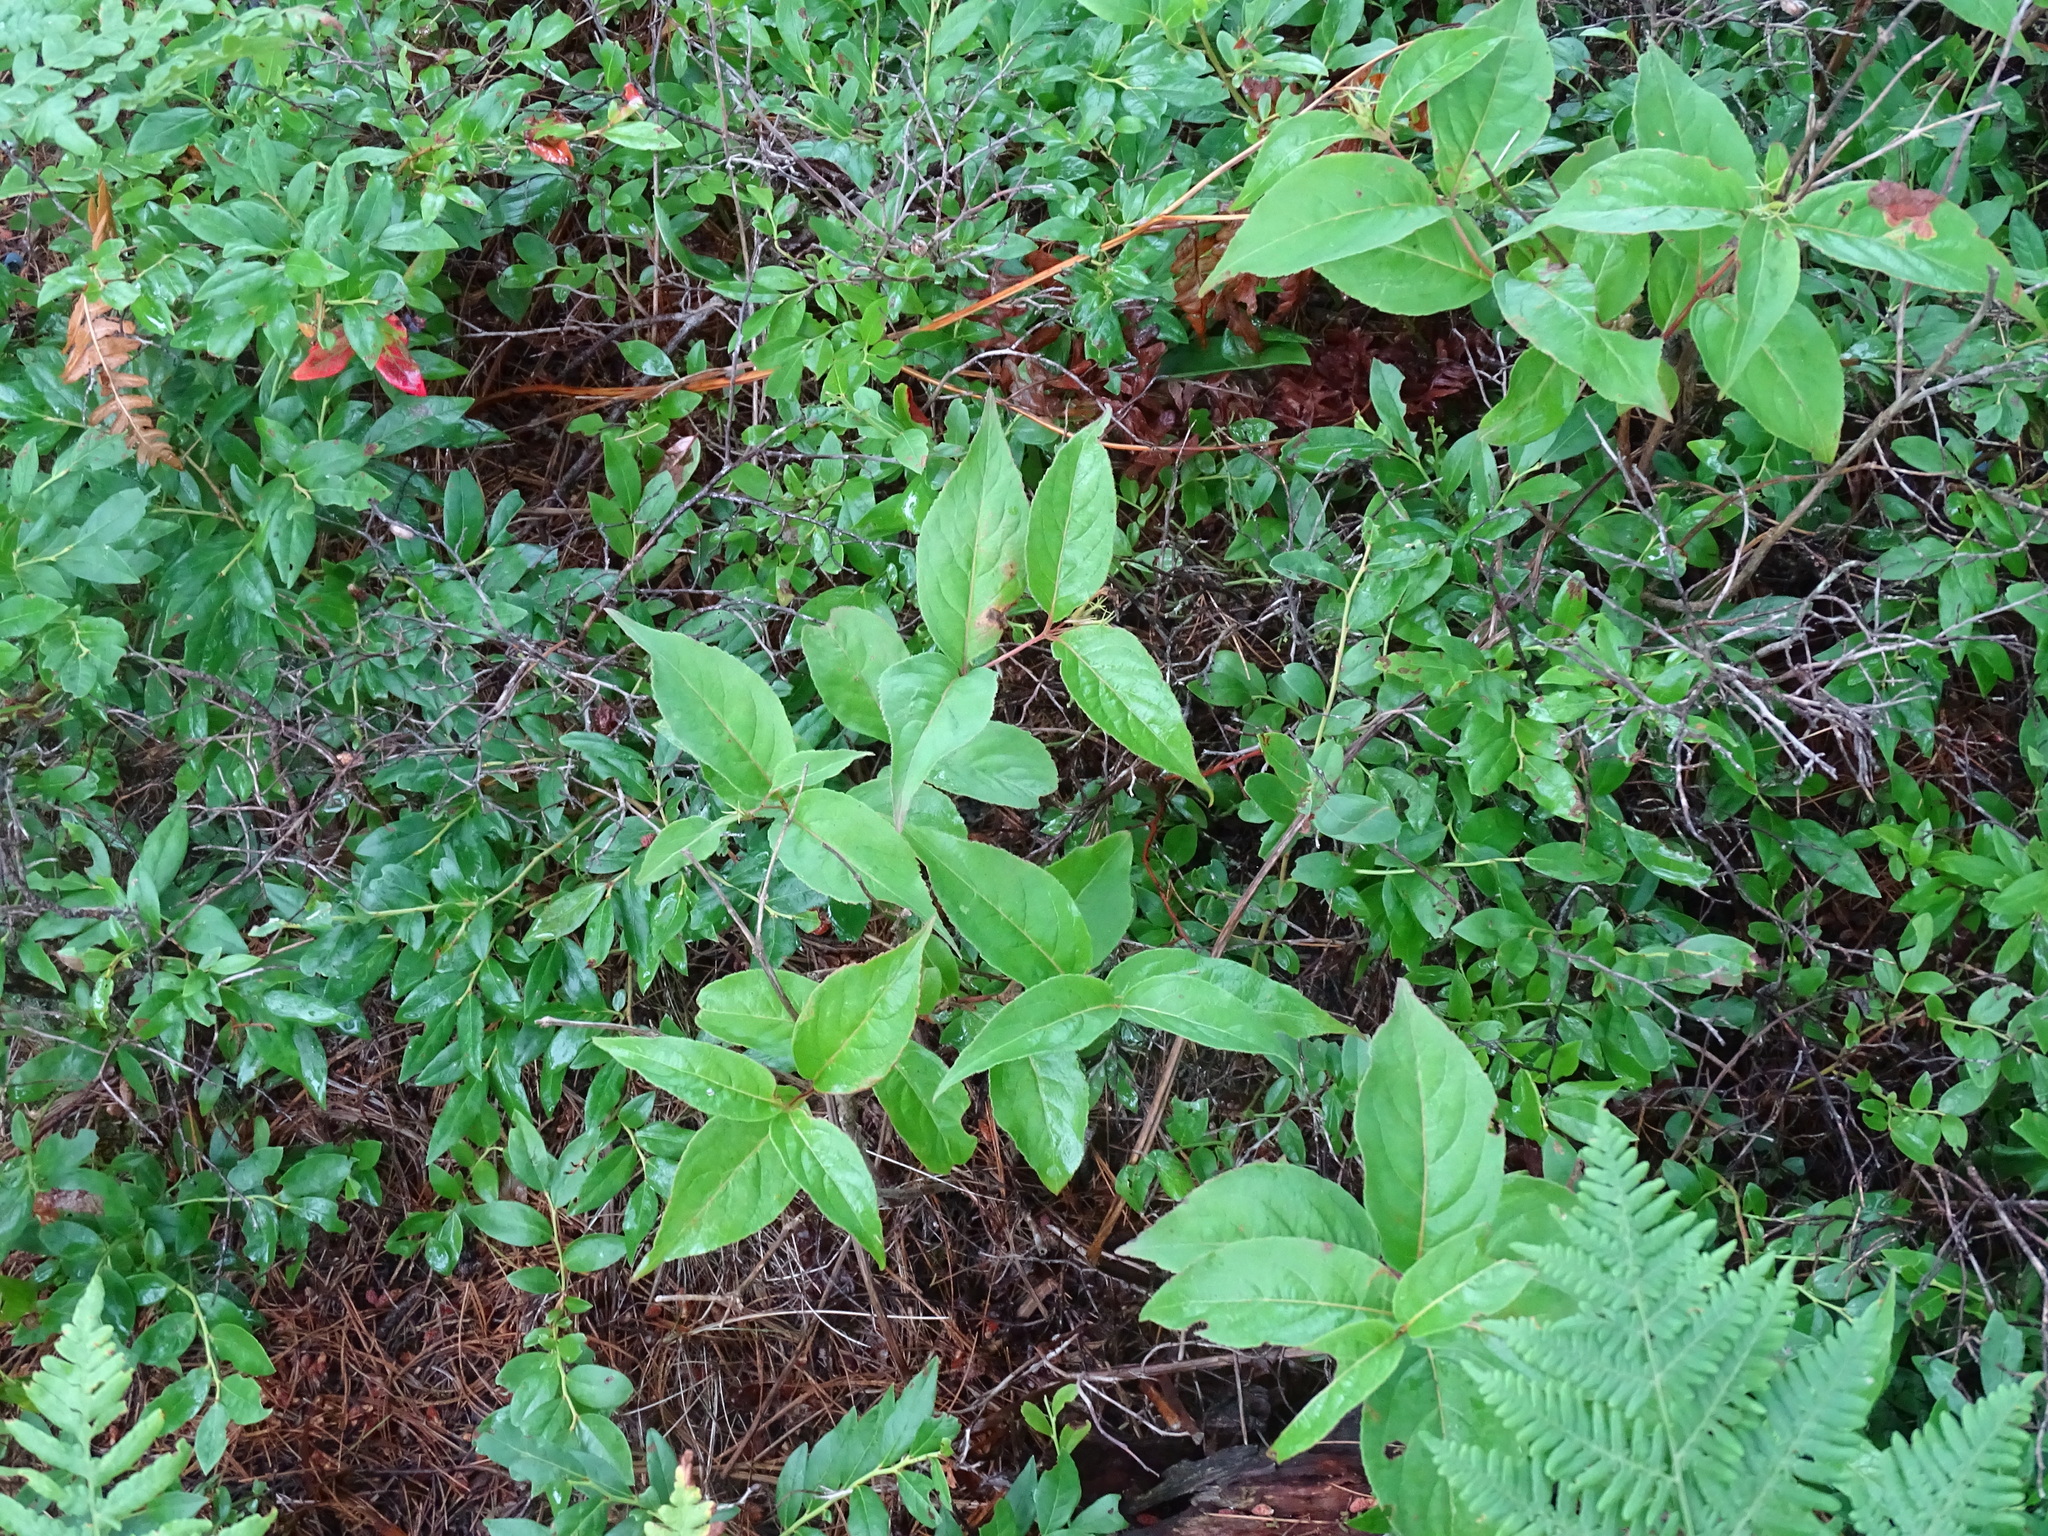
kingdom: Plantae
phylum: Tracheophyta
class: Magnoliopsida
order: Dipsacales
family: Caprifoliaceae
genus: Diervilla
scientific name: Diervilla lonicera
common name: Bush-honeysuckle
